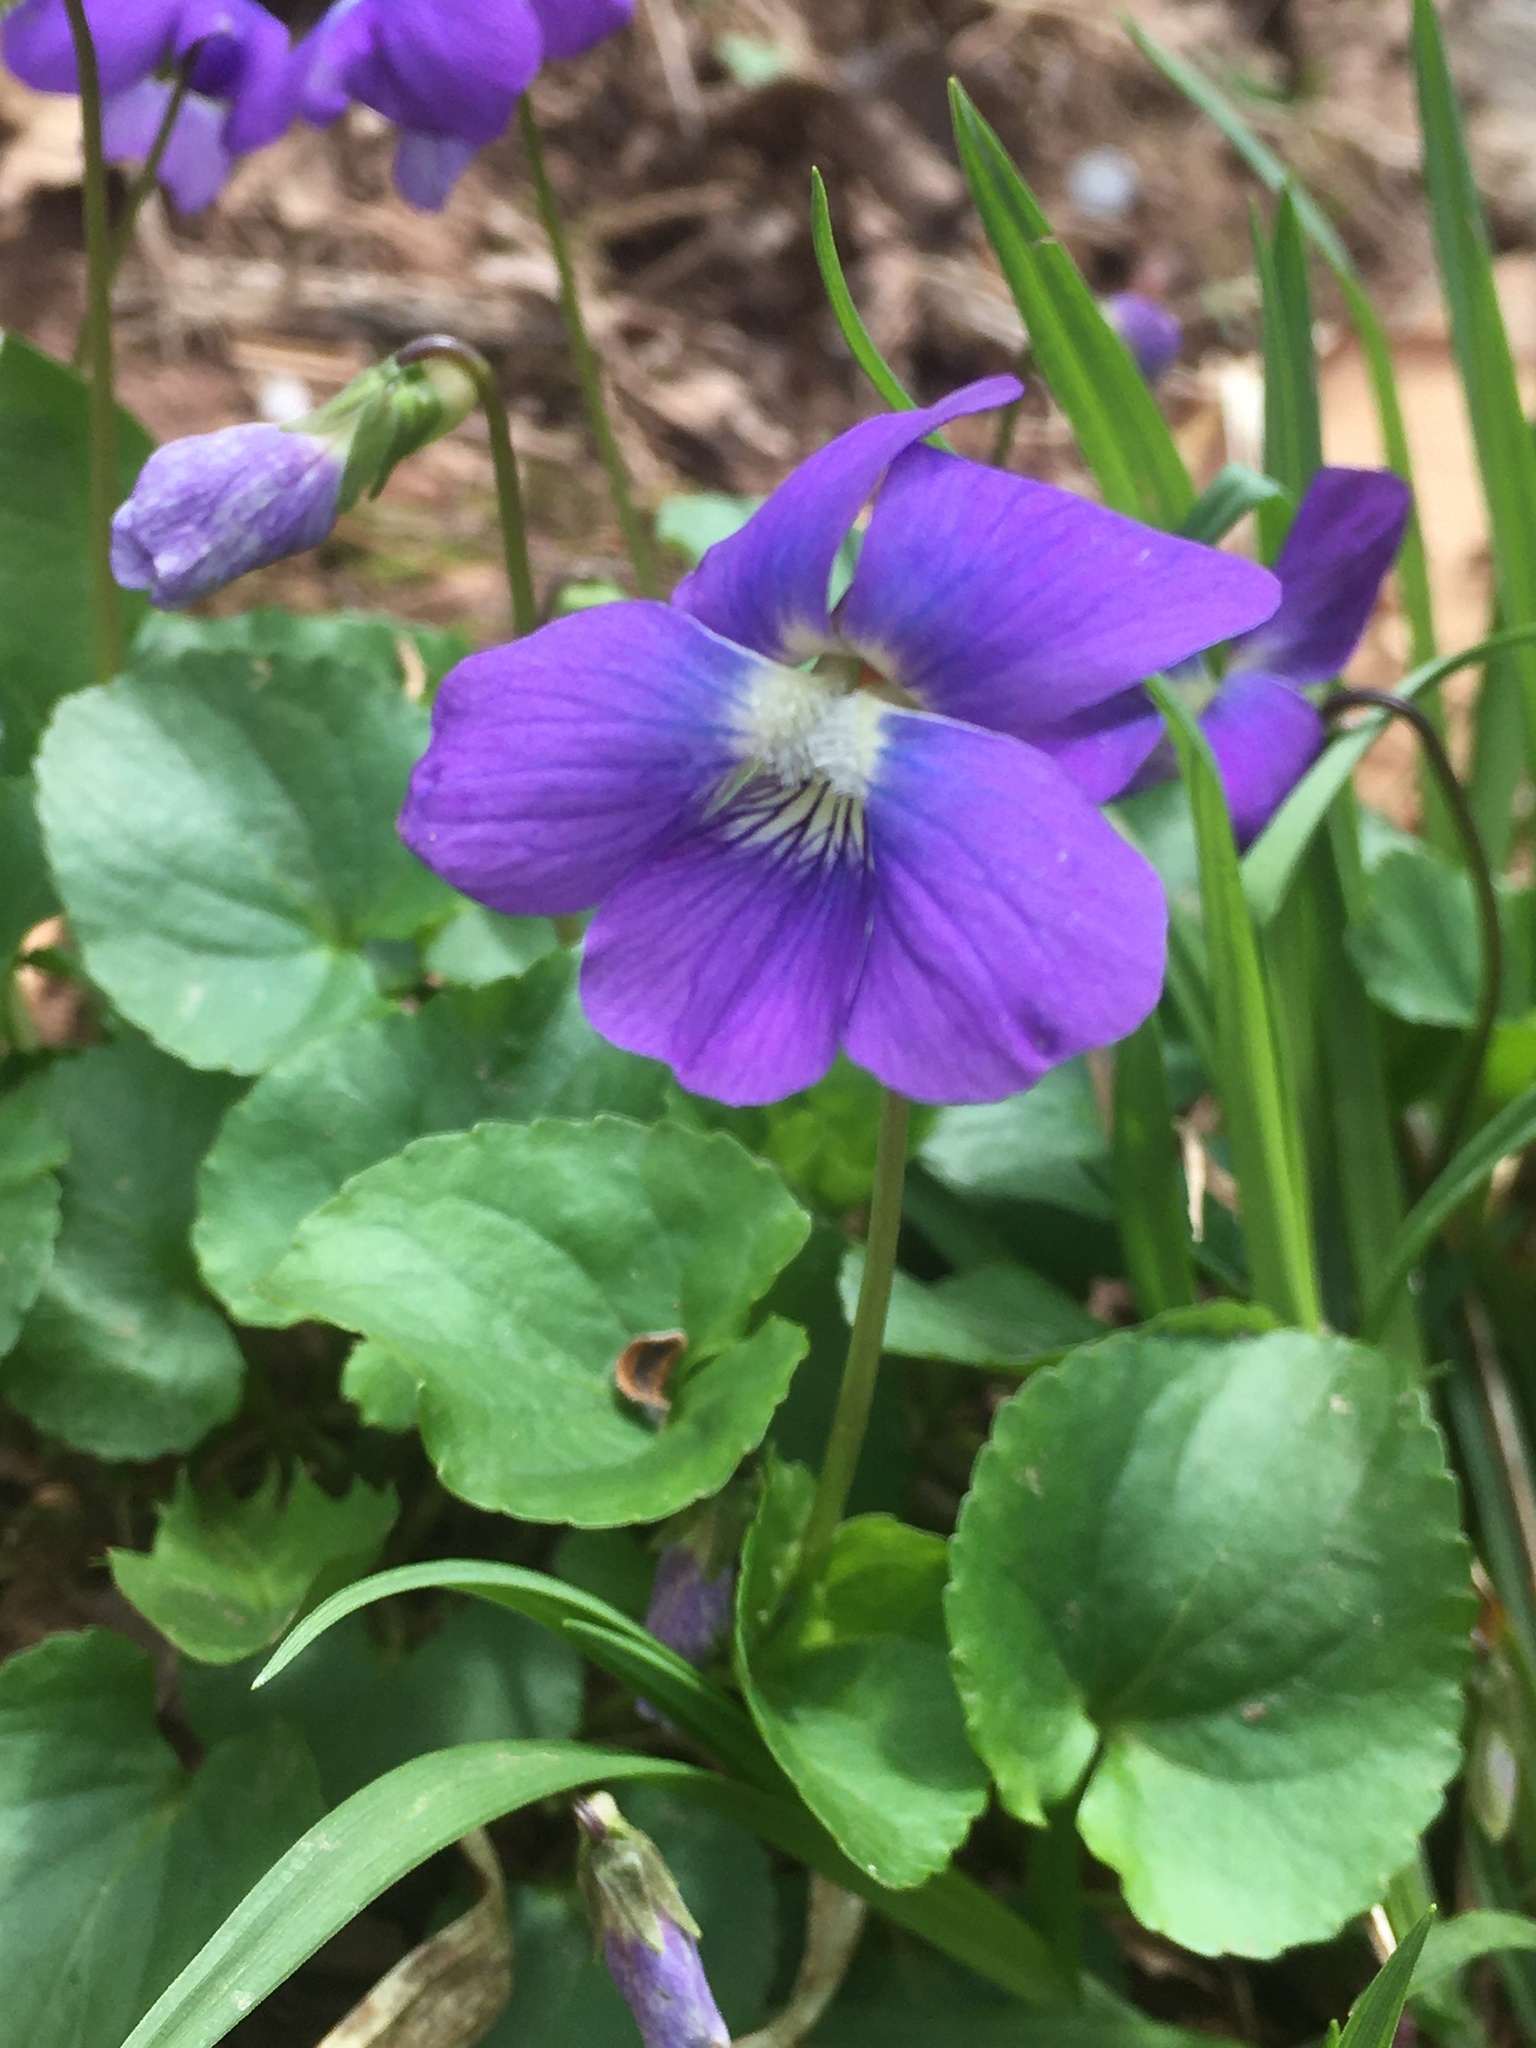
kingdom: Plantae
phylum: Tracheophyta
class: Magnoliopsida
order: Malpighiales
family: Violaceae
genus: Viola
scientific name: Viola sororia
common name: Dooryard violet
